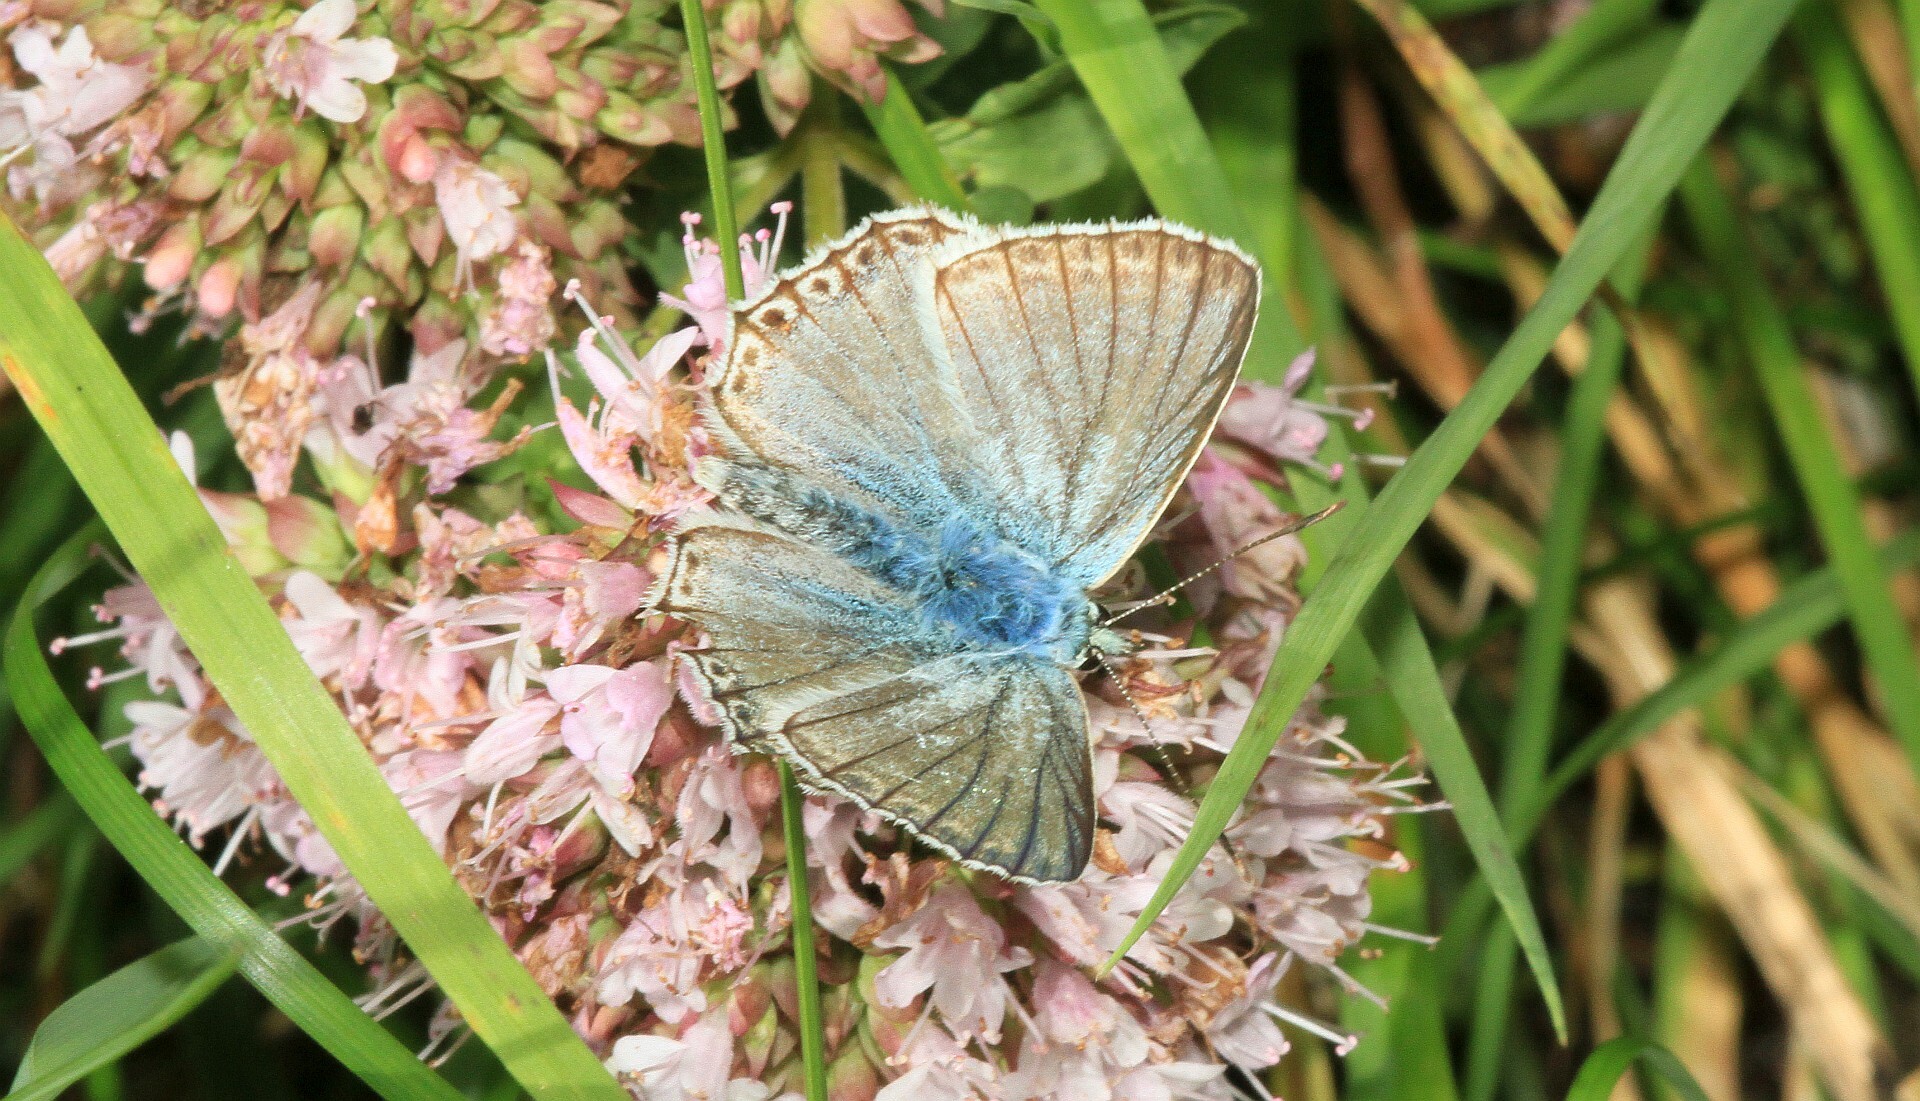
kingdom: Animalia
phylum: Arthropoda
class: Insecta
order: Lepidoptera
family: Lycaenidae
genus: Lysandra
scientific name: Lysandra coridon
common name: Chalkhill blue
